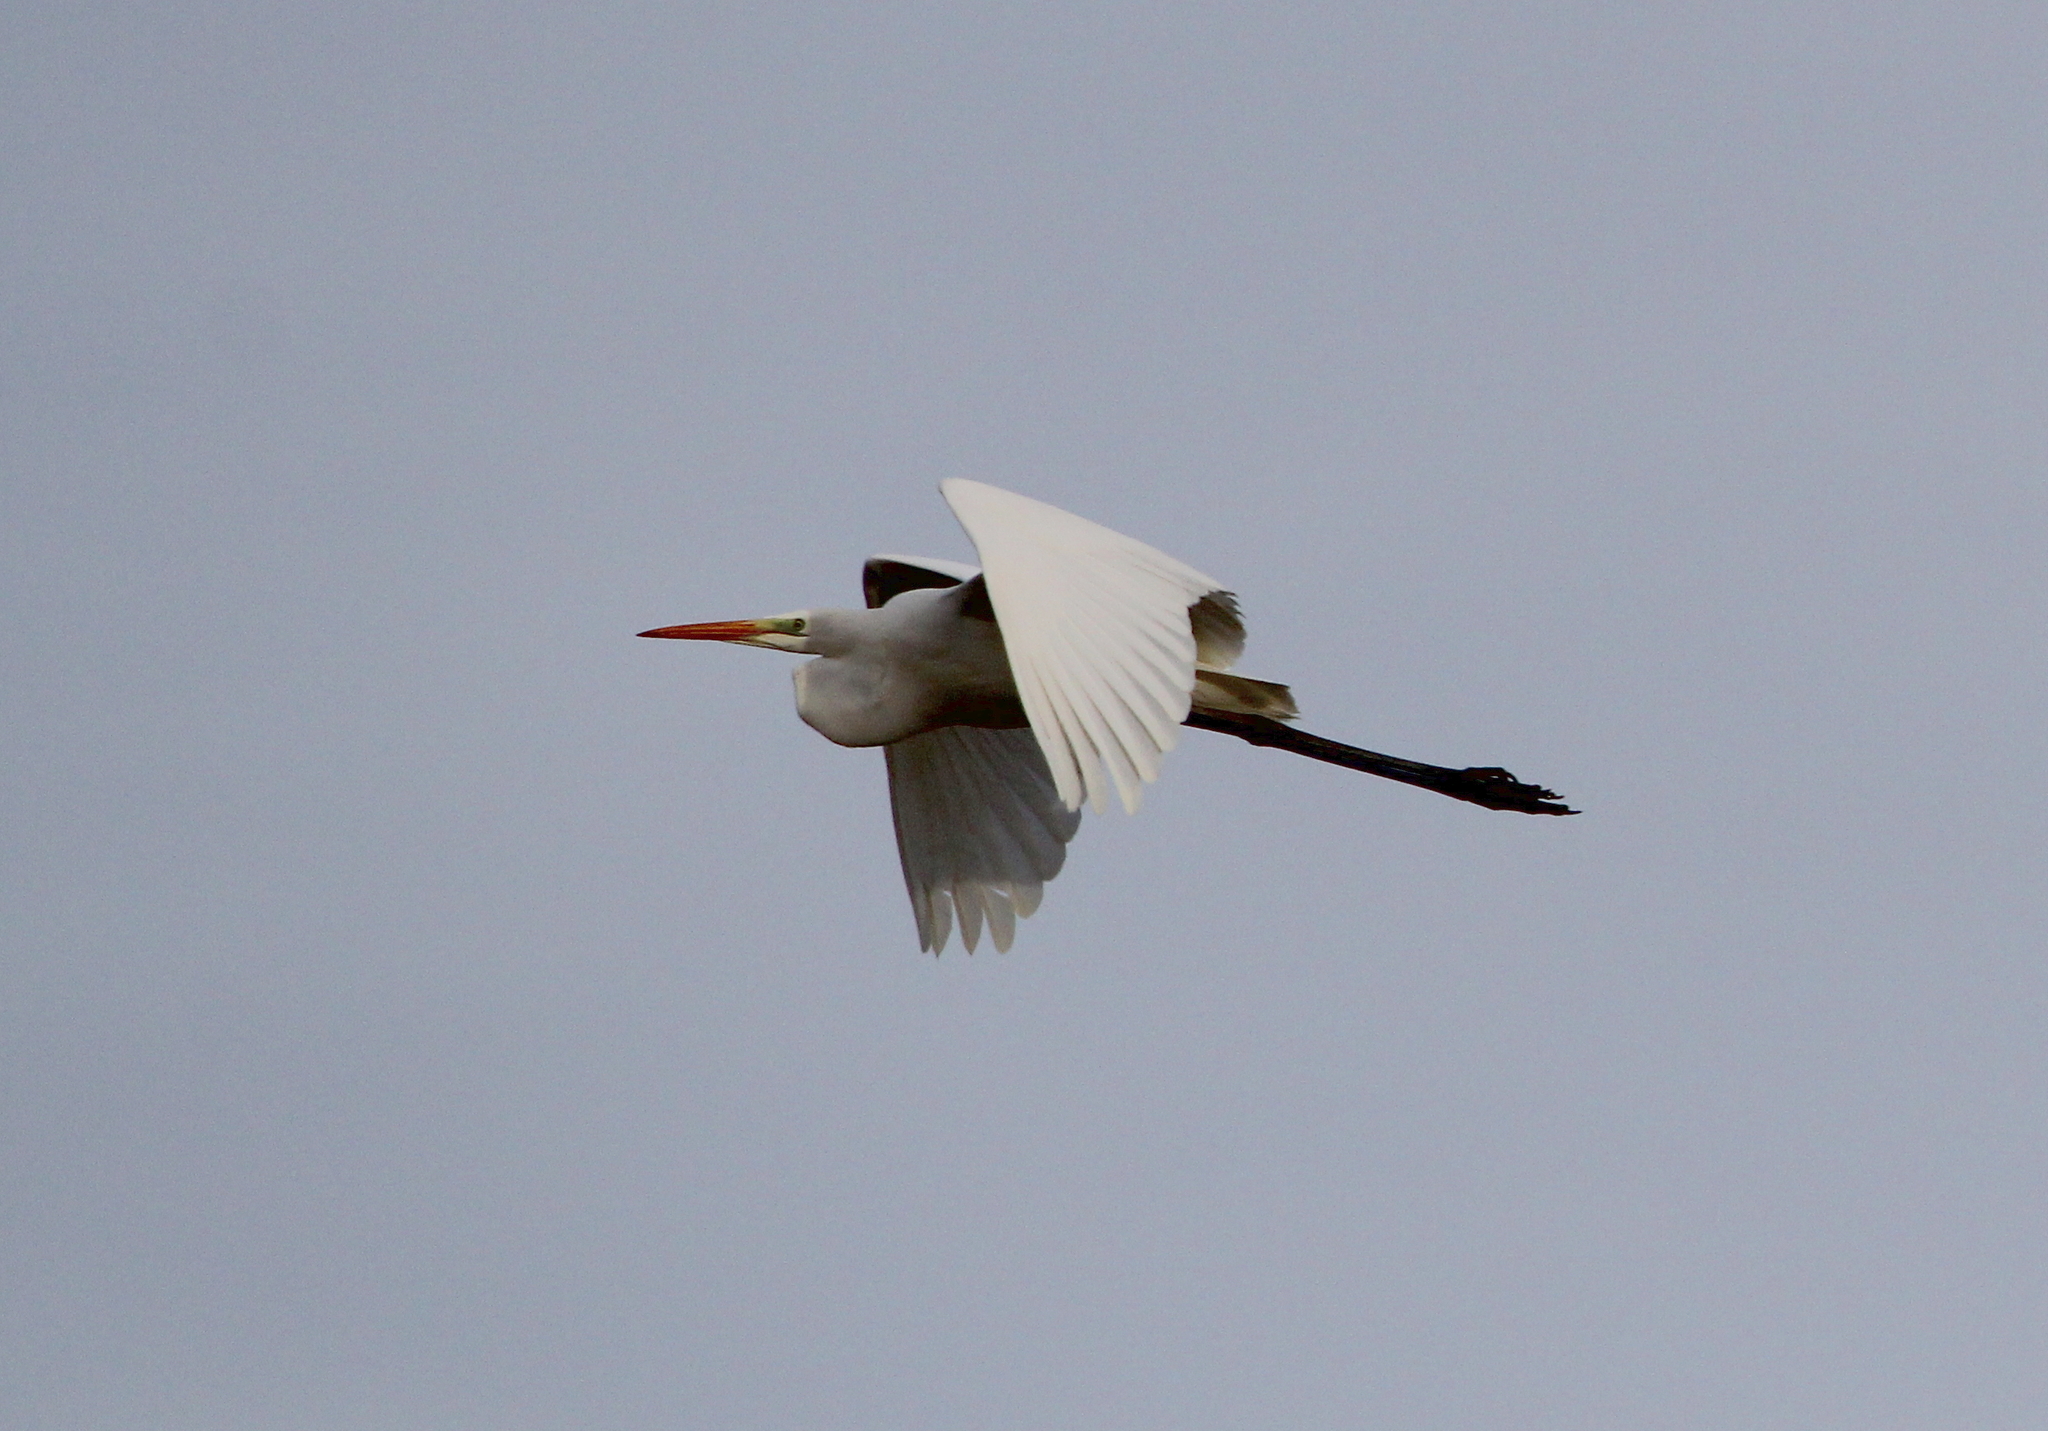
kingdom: Animalia
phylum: Chordata
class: Aves
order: Pelecaniformes
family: Ardeidae
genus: Ardea
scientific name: Ardea alba
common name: Great egret
